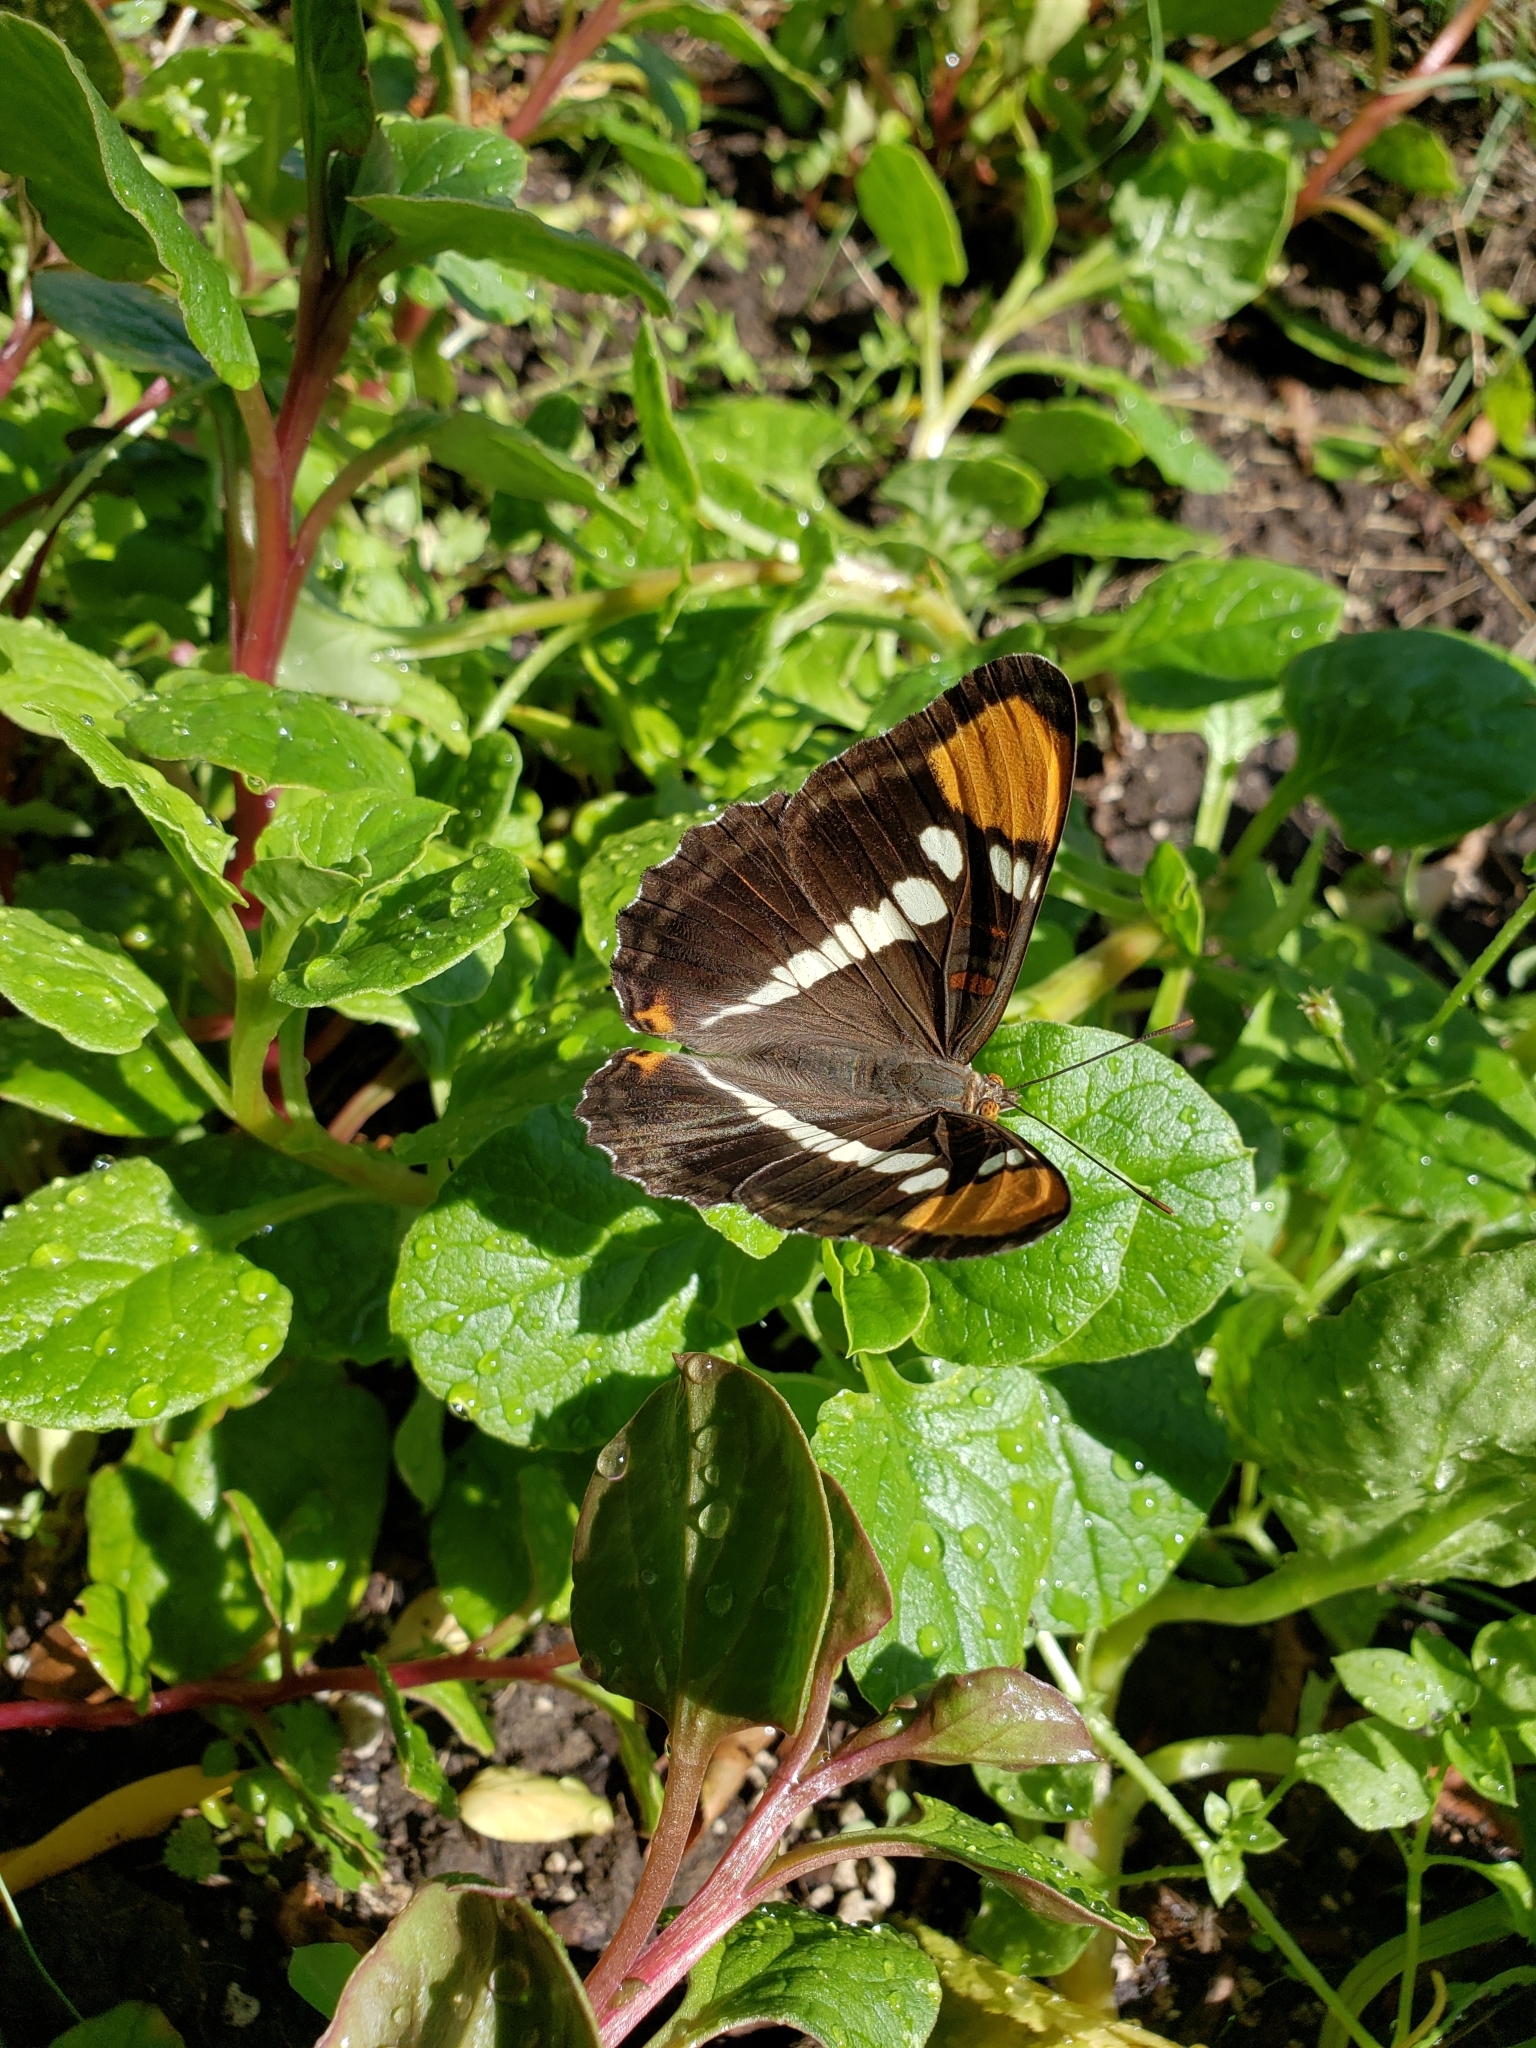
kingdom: Animalia
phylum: Arthropoda
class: Insecta
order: Lepidoptera
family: Nymphalidae
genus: Limenitis
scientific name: Limenitis bredowii
